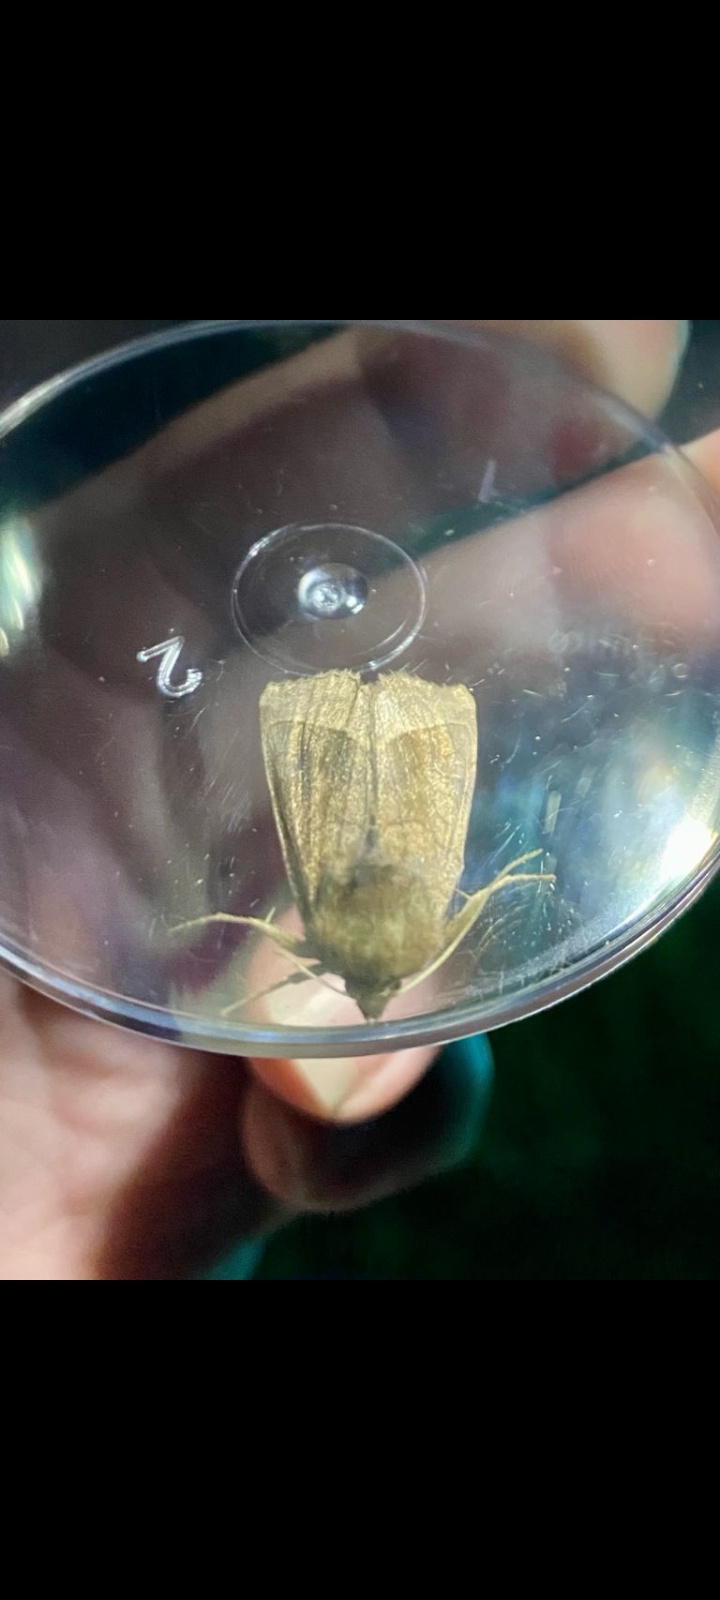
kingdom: Animalia
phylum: Arthropoda
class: Insecta
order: Lepidoptera
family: Noctuidae
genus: Hydraecia
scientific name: Hydraecia micacea
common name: Rosy rustic
